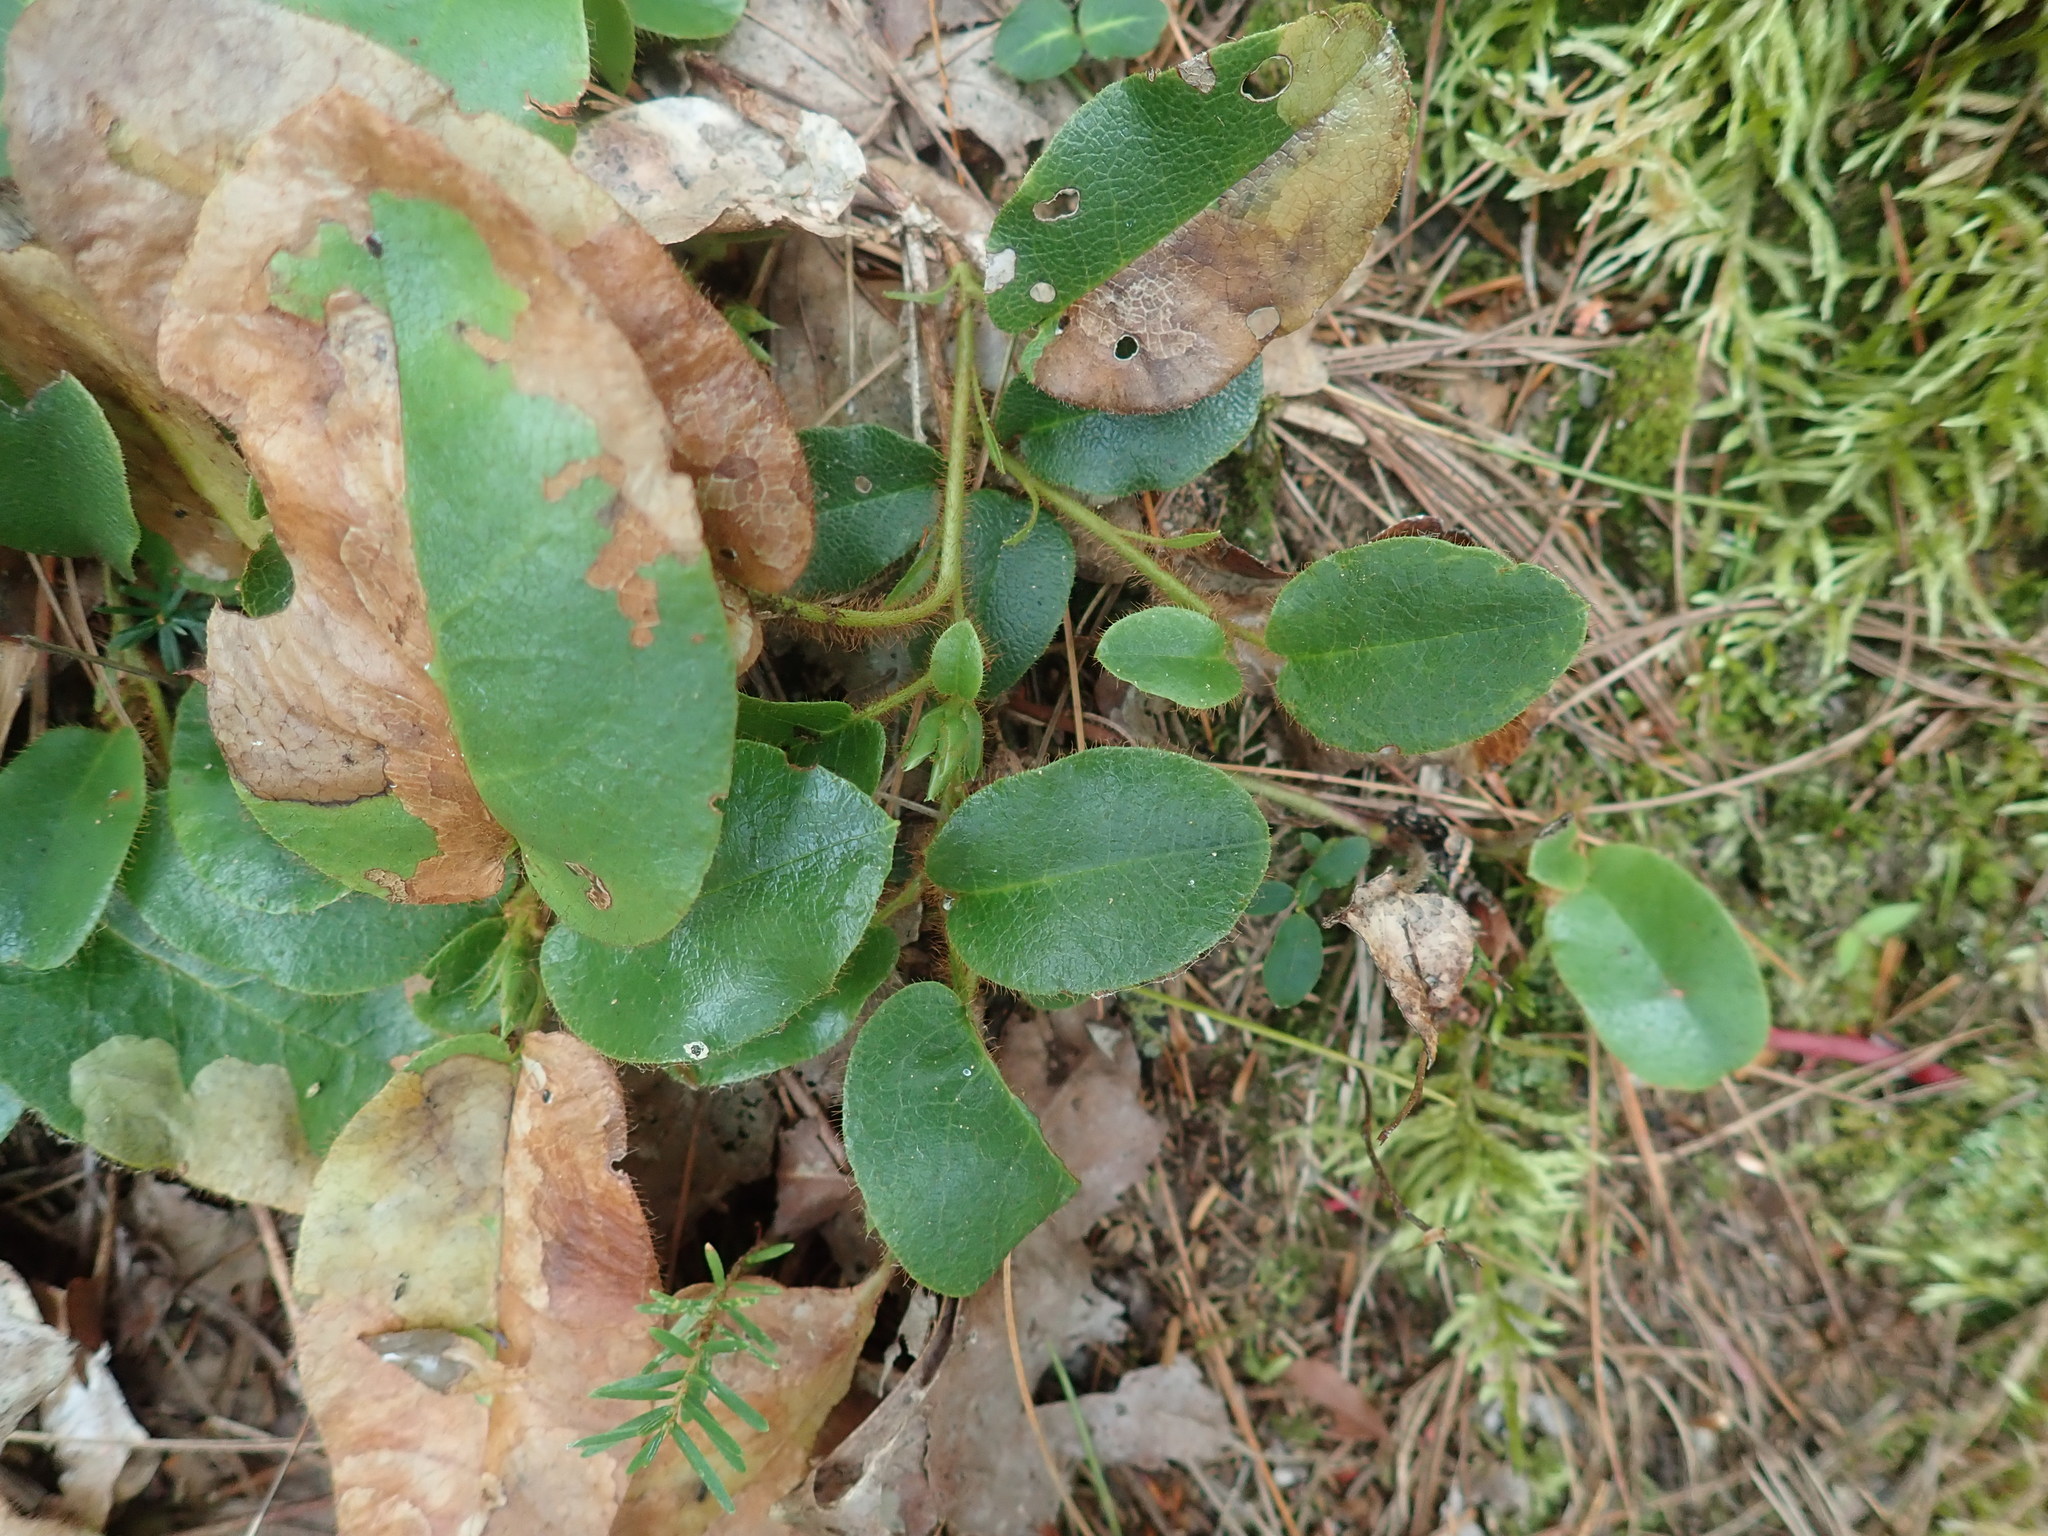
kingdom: Plantae
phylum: Tracheophyta
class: Magnoliopsida
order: Ericales
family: Ericaceae
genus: Epigaea
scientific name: Epigaea repens
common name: Gravelroot
